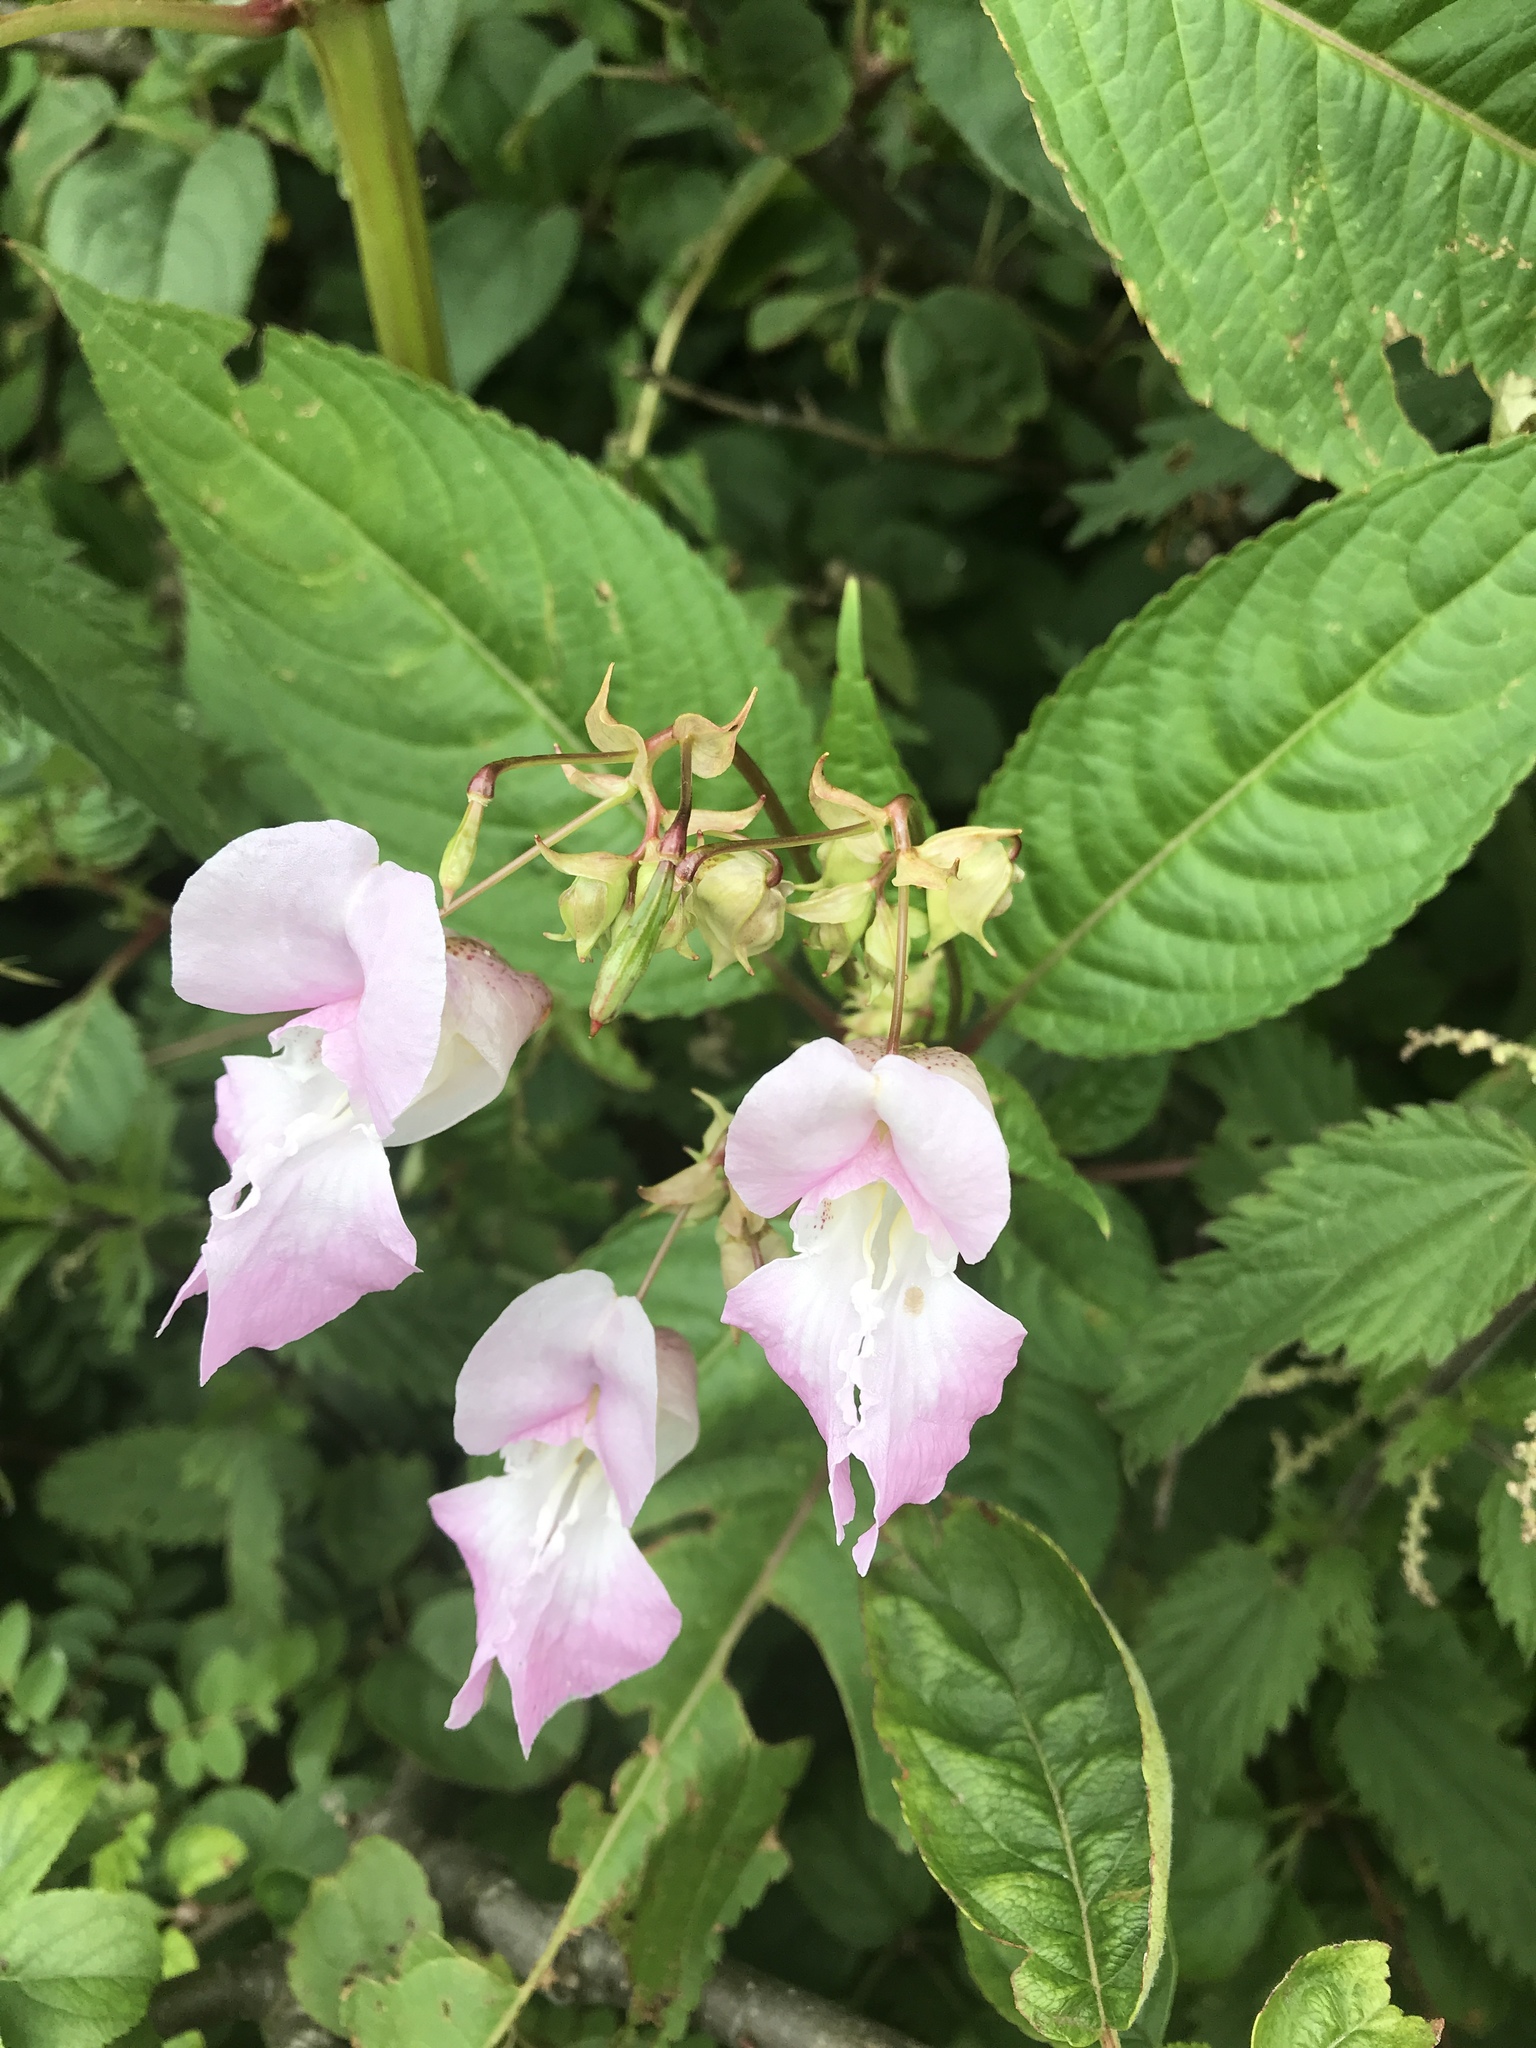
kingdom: Plantae
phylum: Tracheophyta
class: Magnoliopsida
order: Ericales
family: Balsaminaceae
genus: Impatiens
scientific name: Impatiens glandulifera
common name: Himalayan balsam
